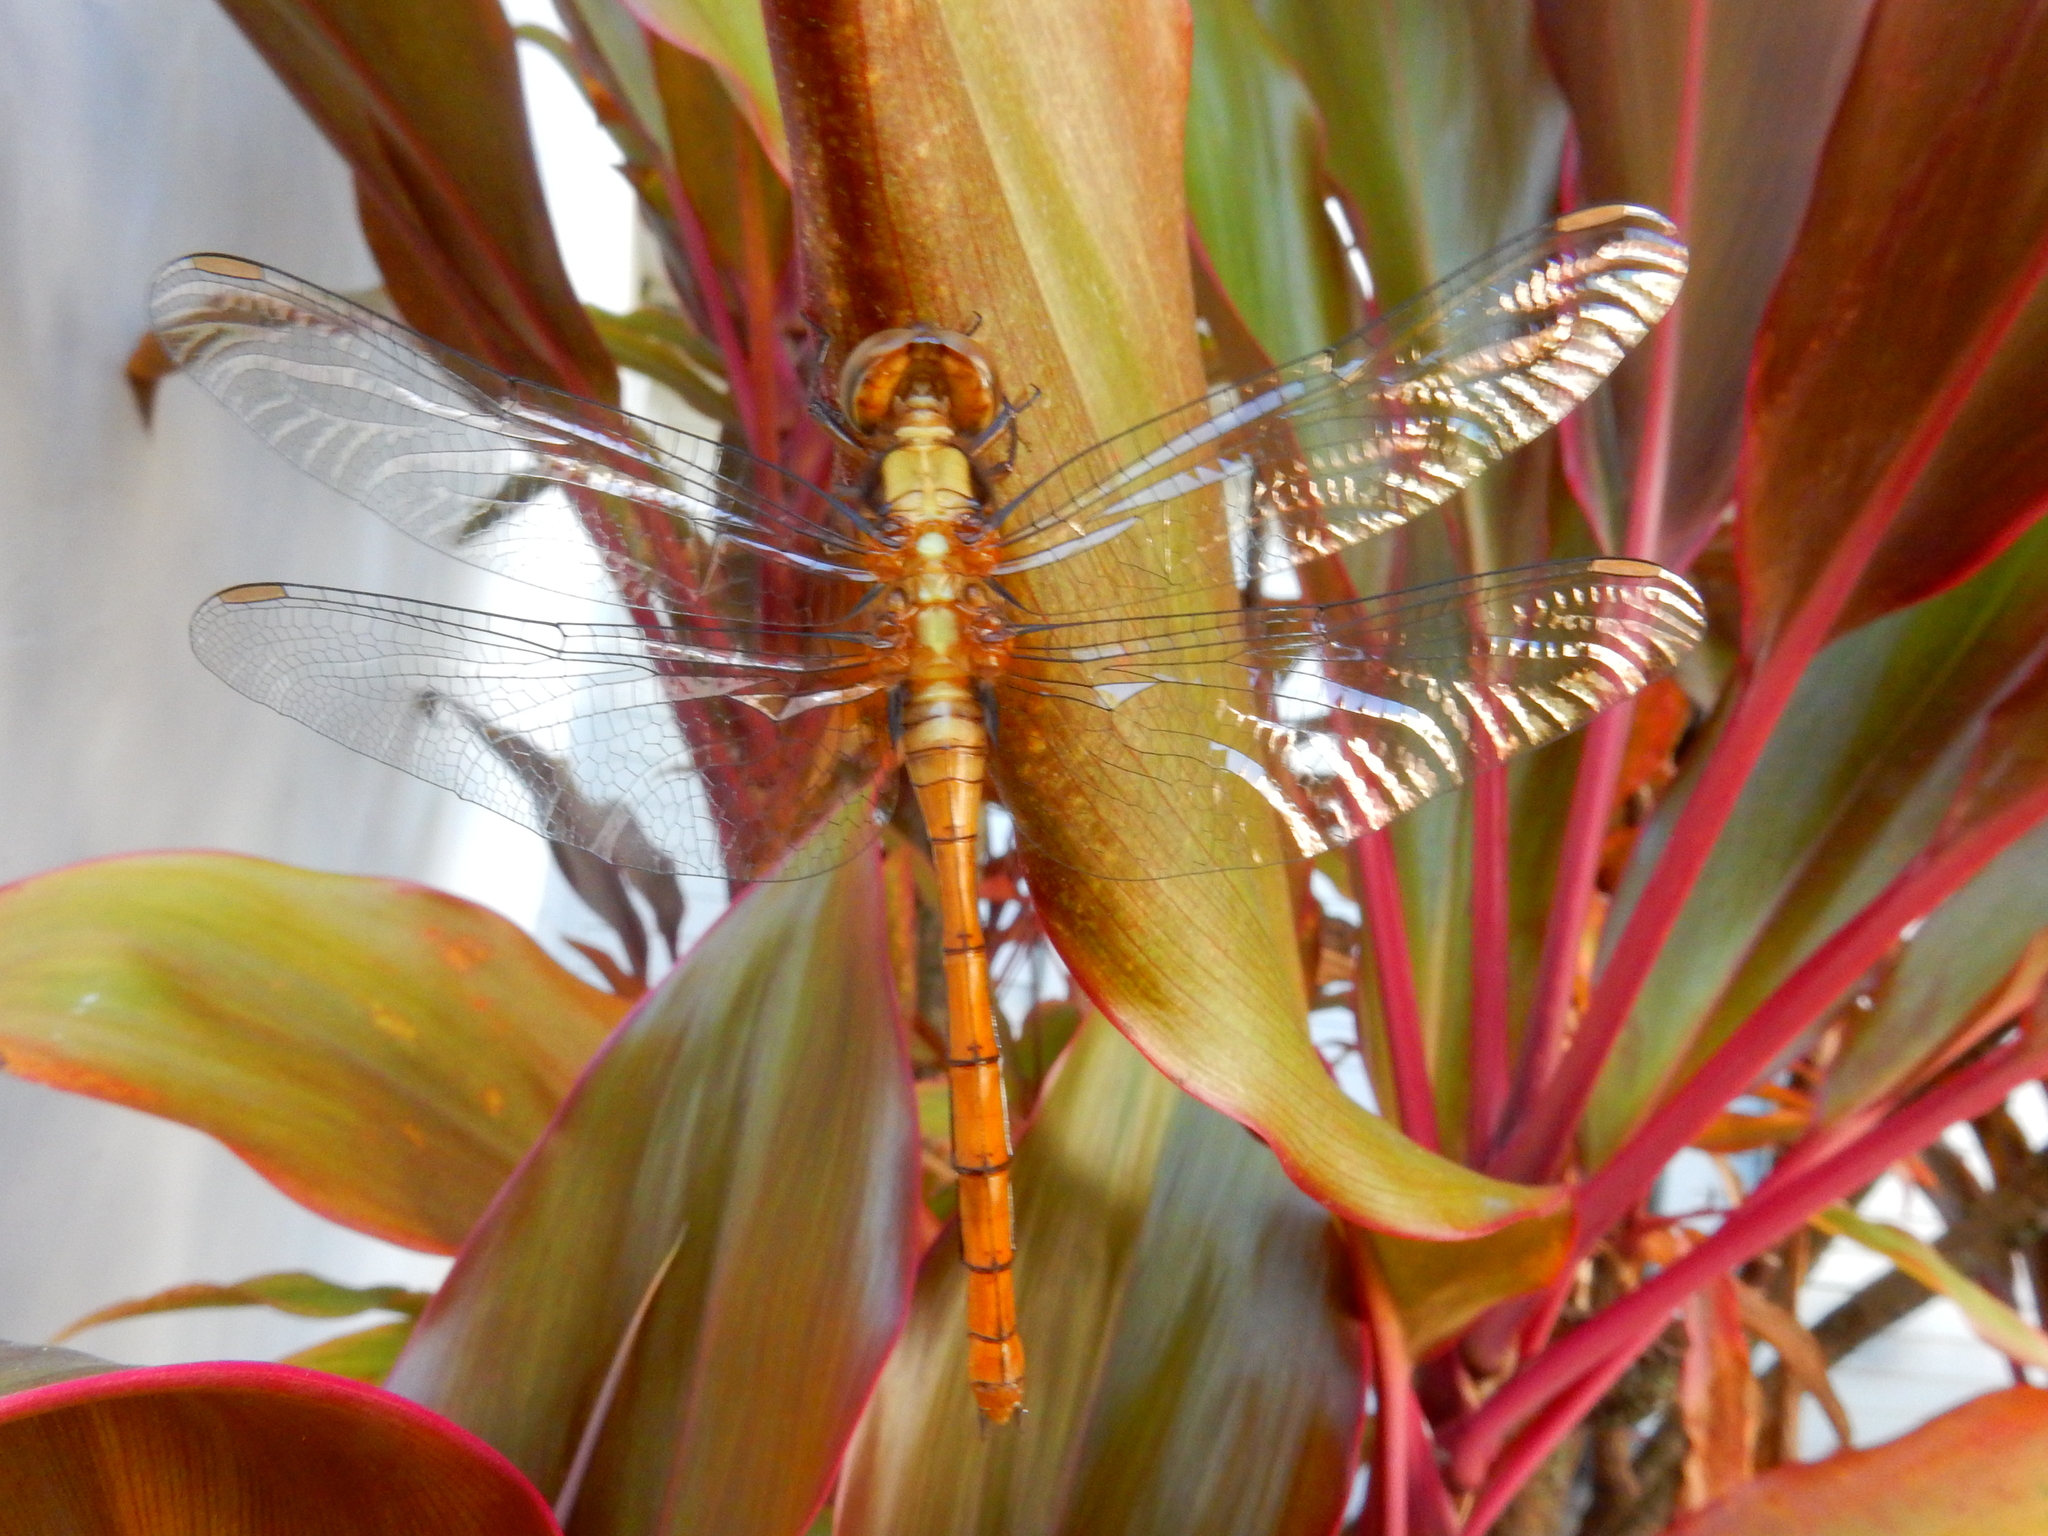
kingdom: Animalia
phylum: Arthropoda
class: Insecta
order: Odonata
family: Libellulidae
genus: Orthetrum
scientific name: Orthetrum villosovittatum
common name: Firery skimmer
